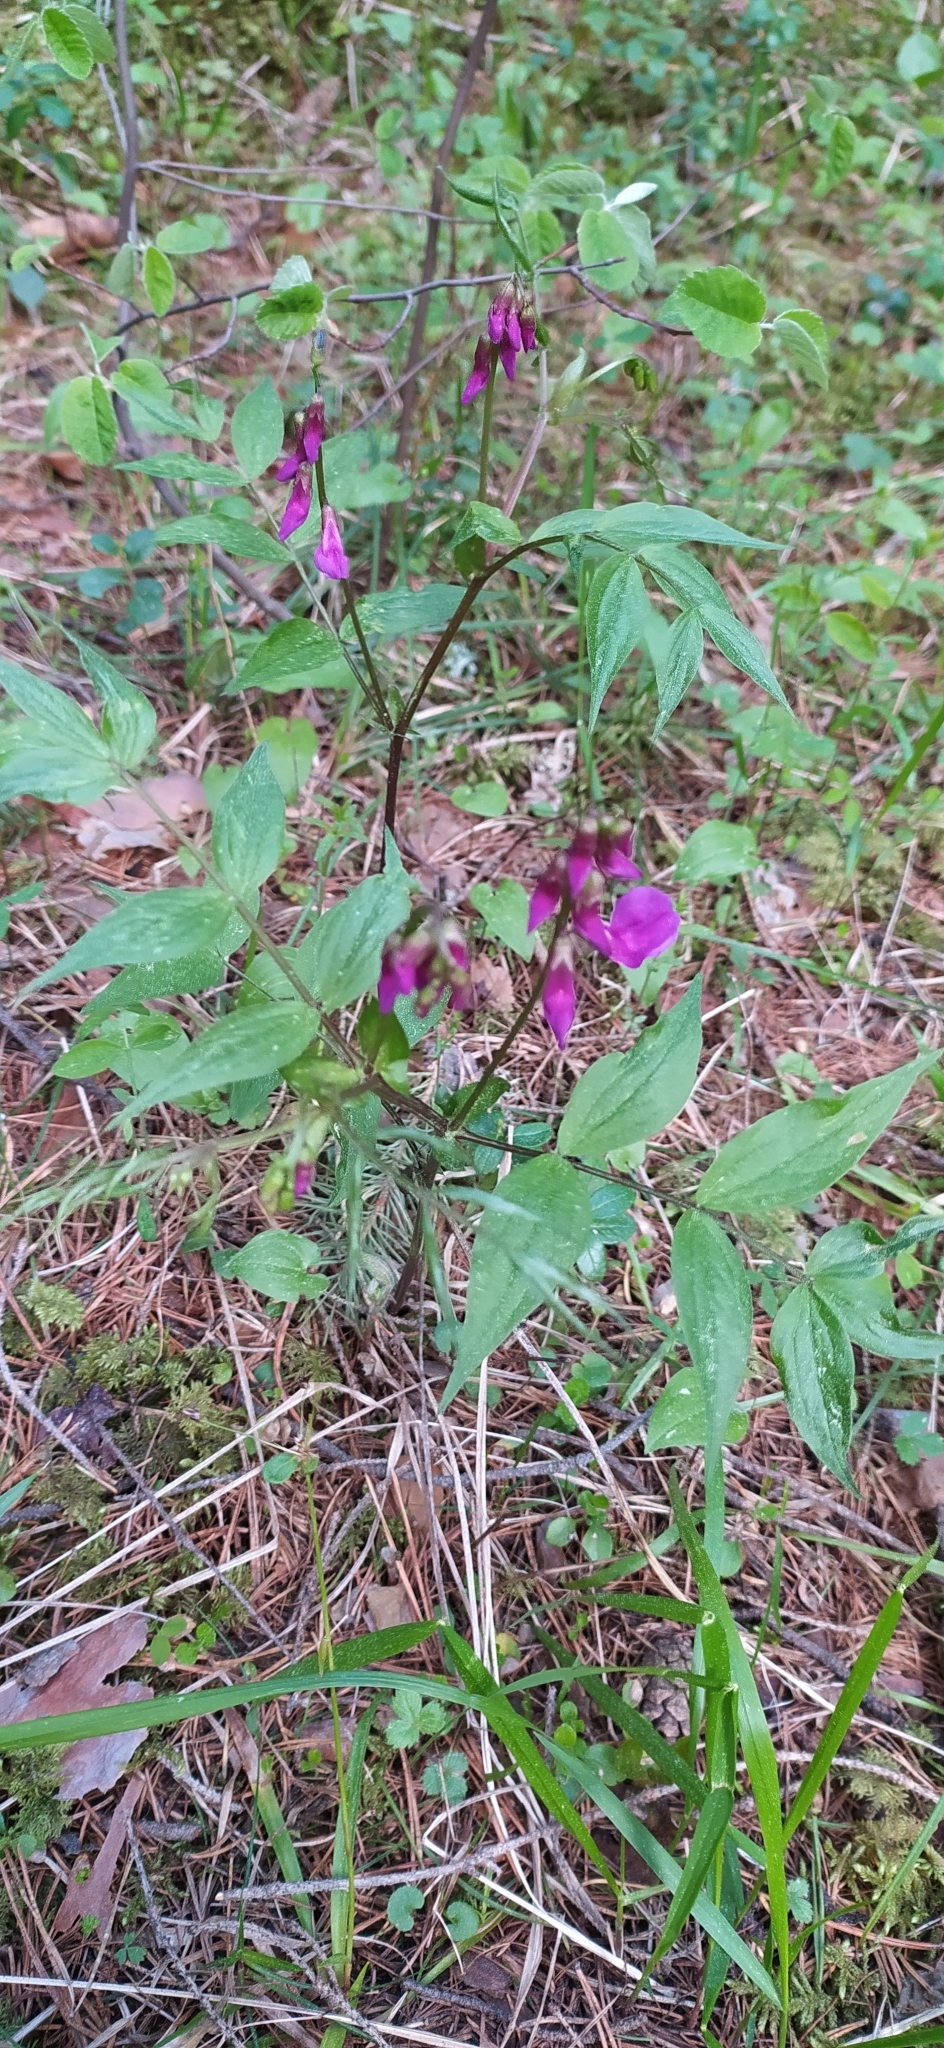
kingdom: Plantae
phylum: Tracheophyta
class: Magnoliopsida
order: Fabales
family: Fabaceae
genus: Lathyrus
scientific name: Lathyrus vernus
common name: Spring pea
